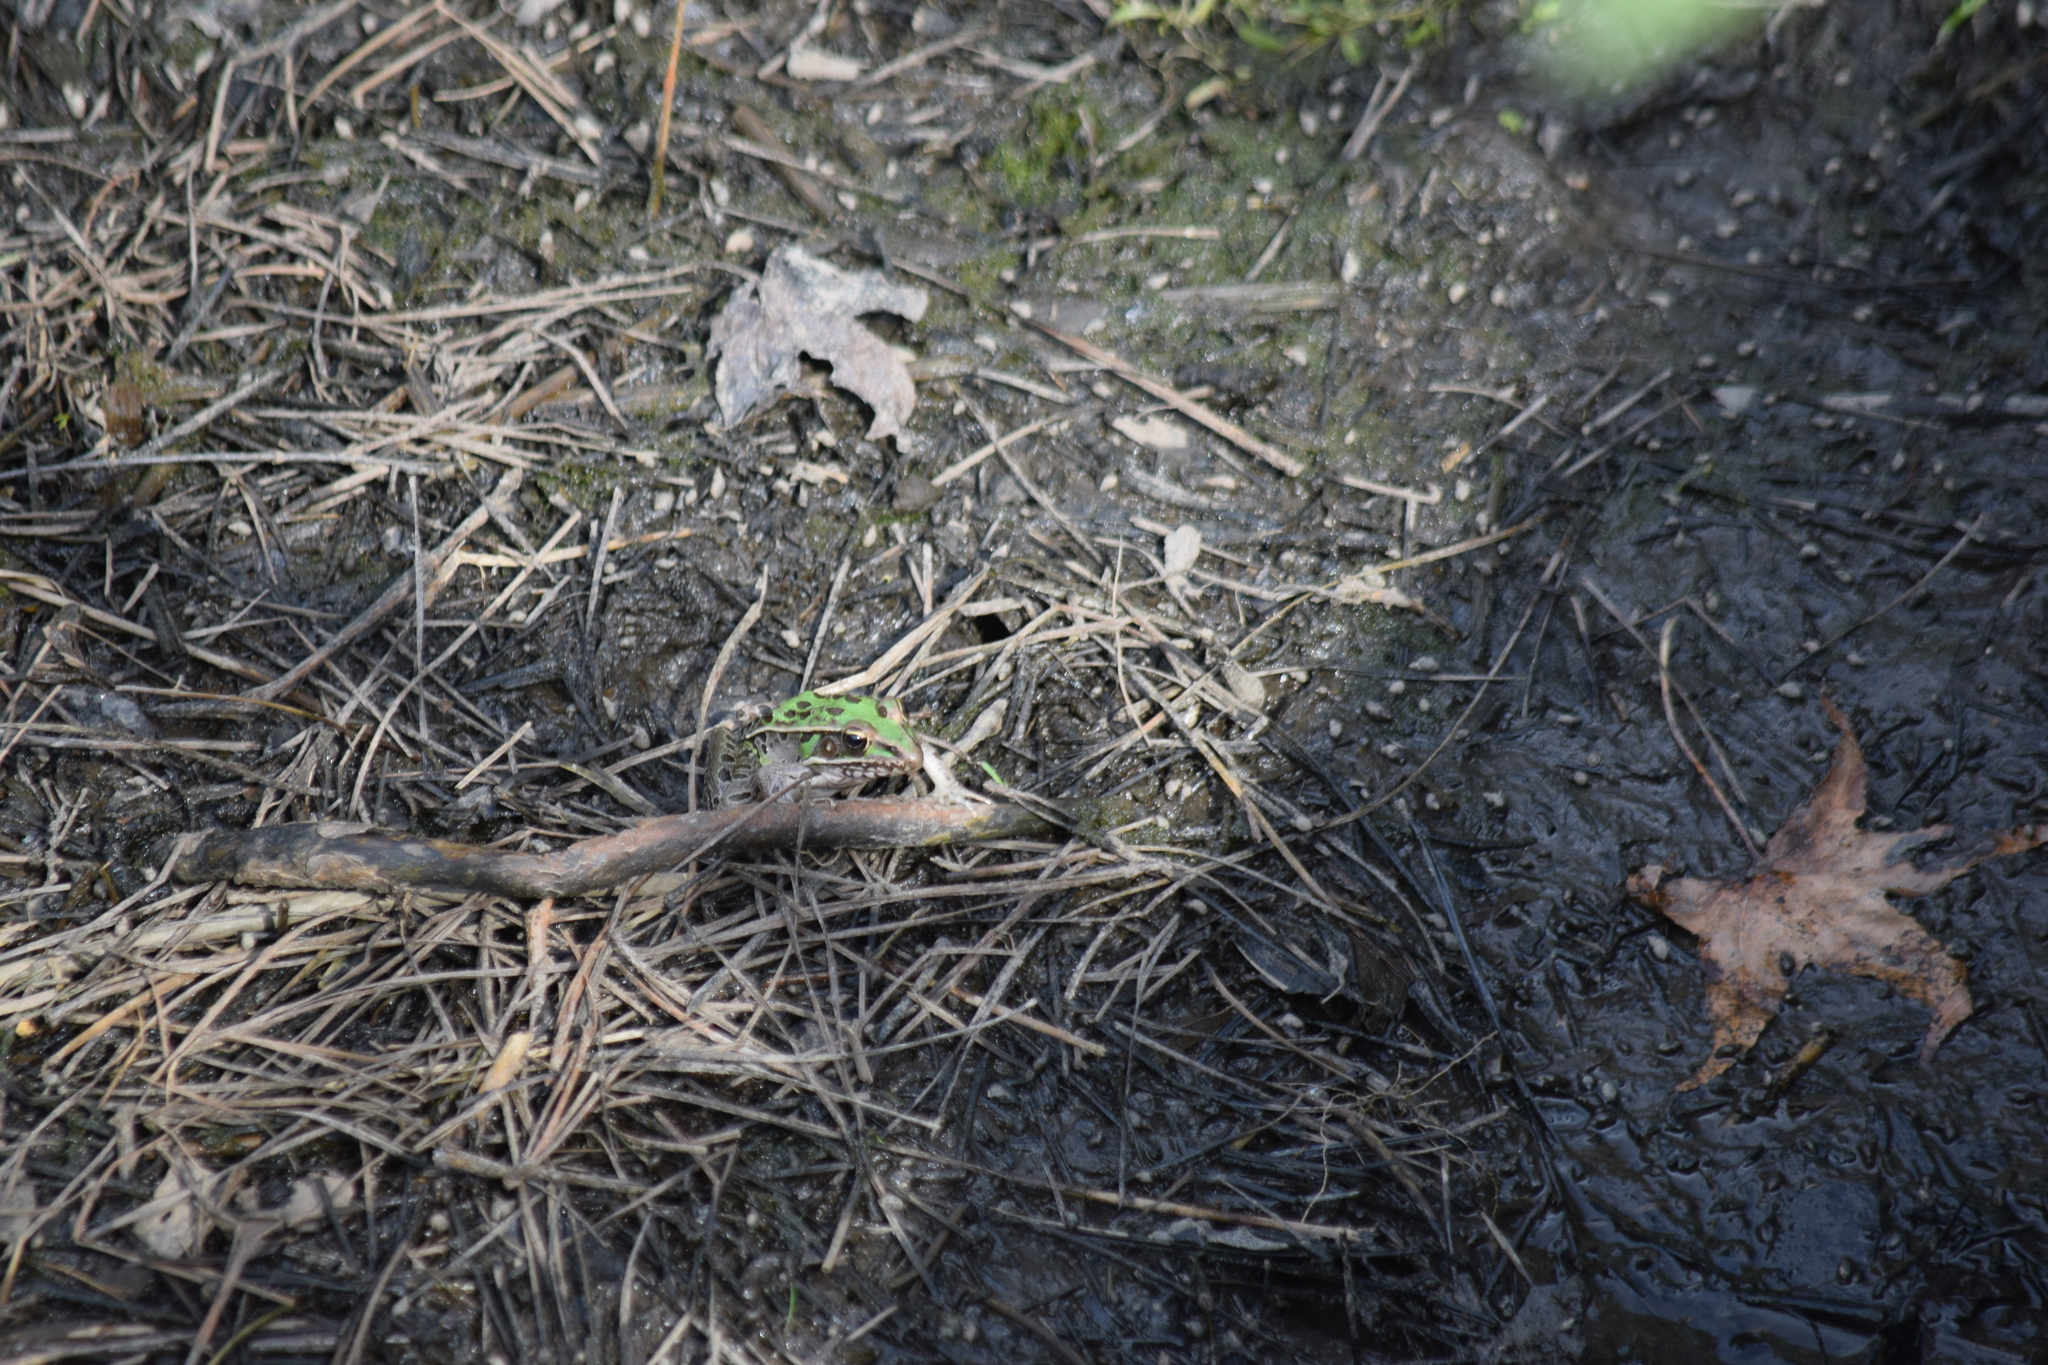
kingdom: Animalia
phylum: Chordata
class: Amphibia
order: Anura
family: Ranidae
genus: Lithobates
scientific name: Lithobates sphenocephalus
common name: Southern leopard frog
